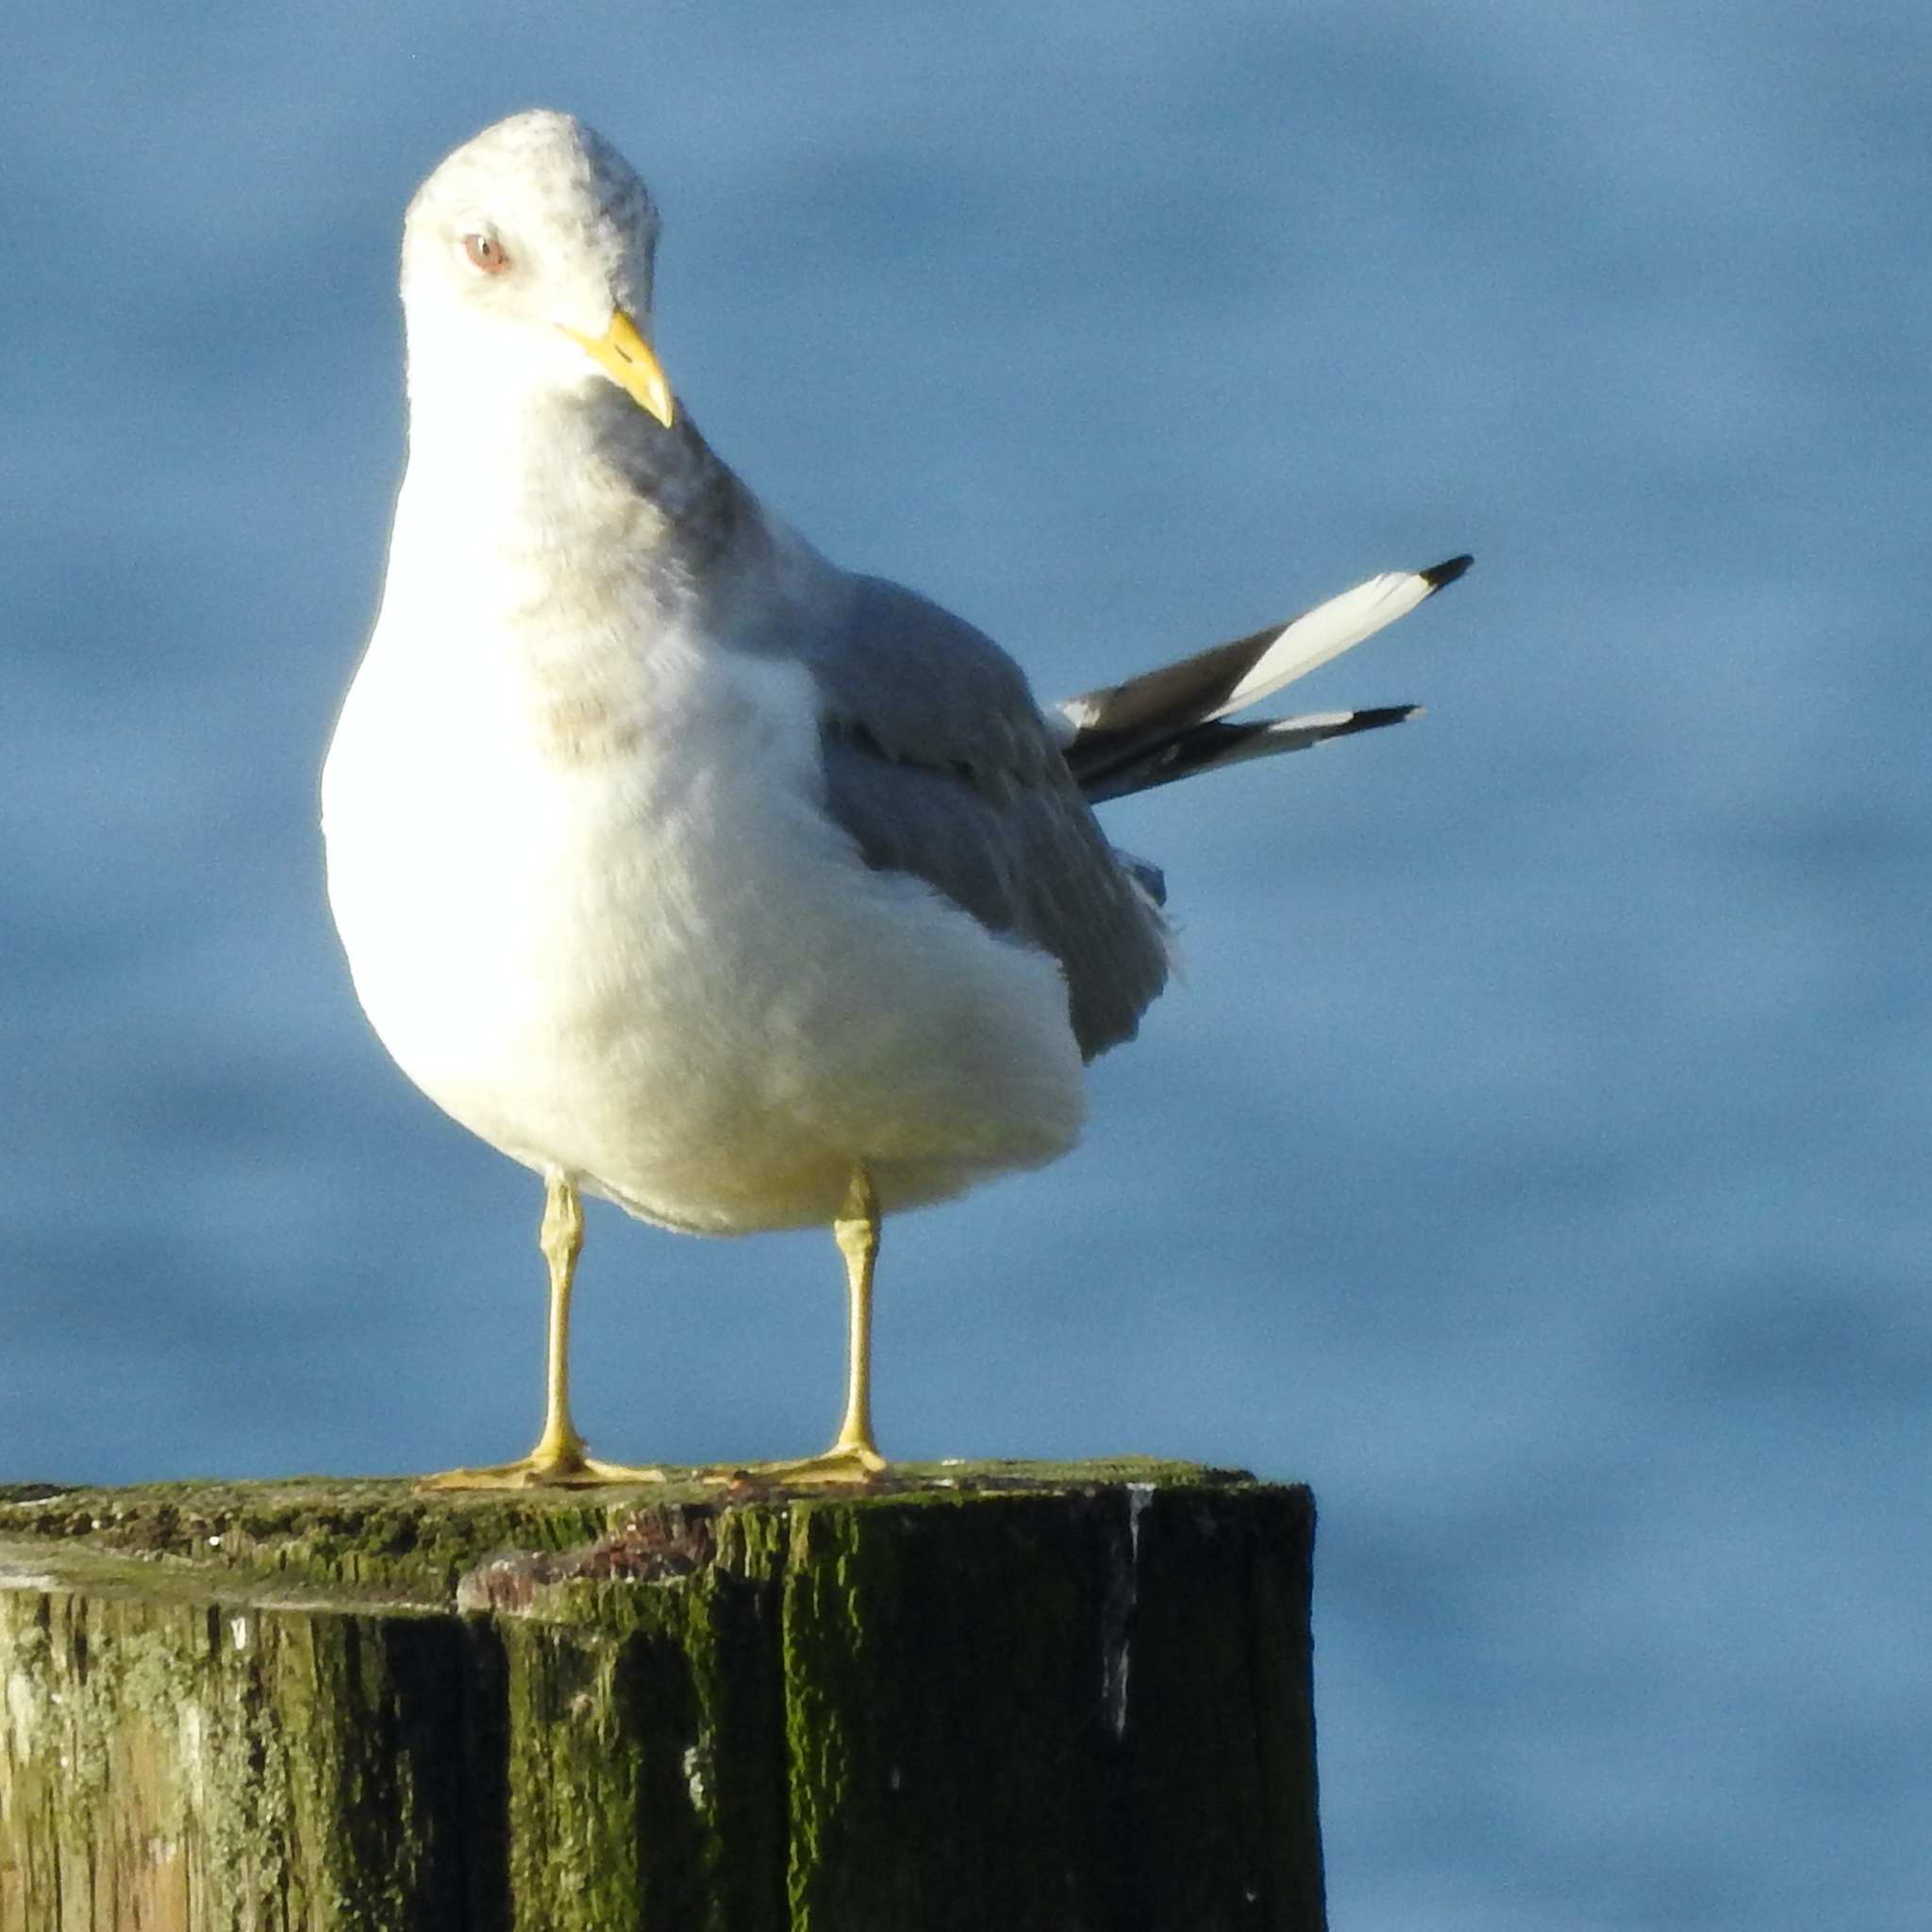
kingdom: Animalia
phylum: Chordata
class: Aves
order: Charadriiformes
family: Laridae
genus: Larus
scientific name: Larus brachyrhynchus
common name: Short-billed gull
